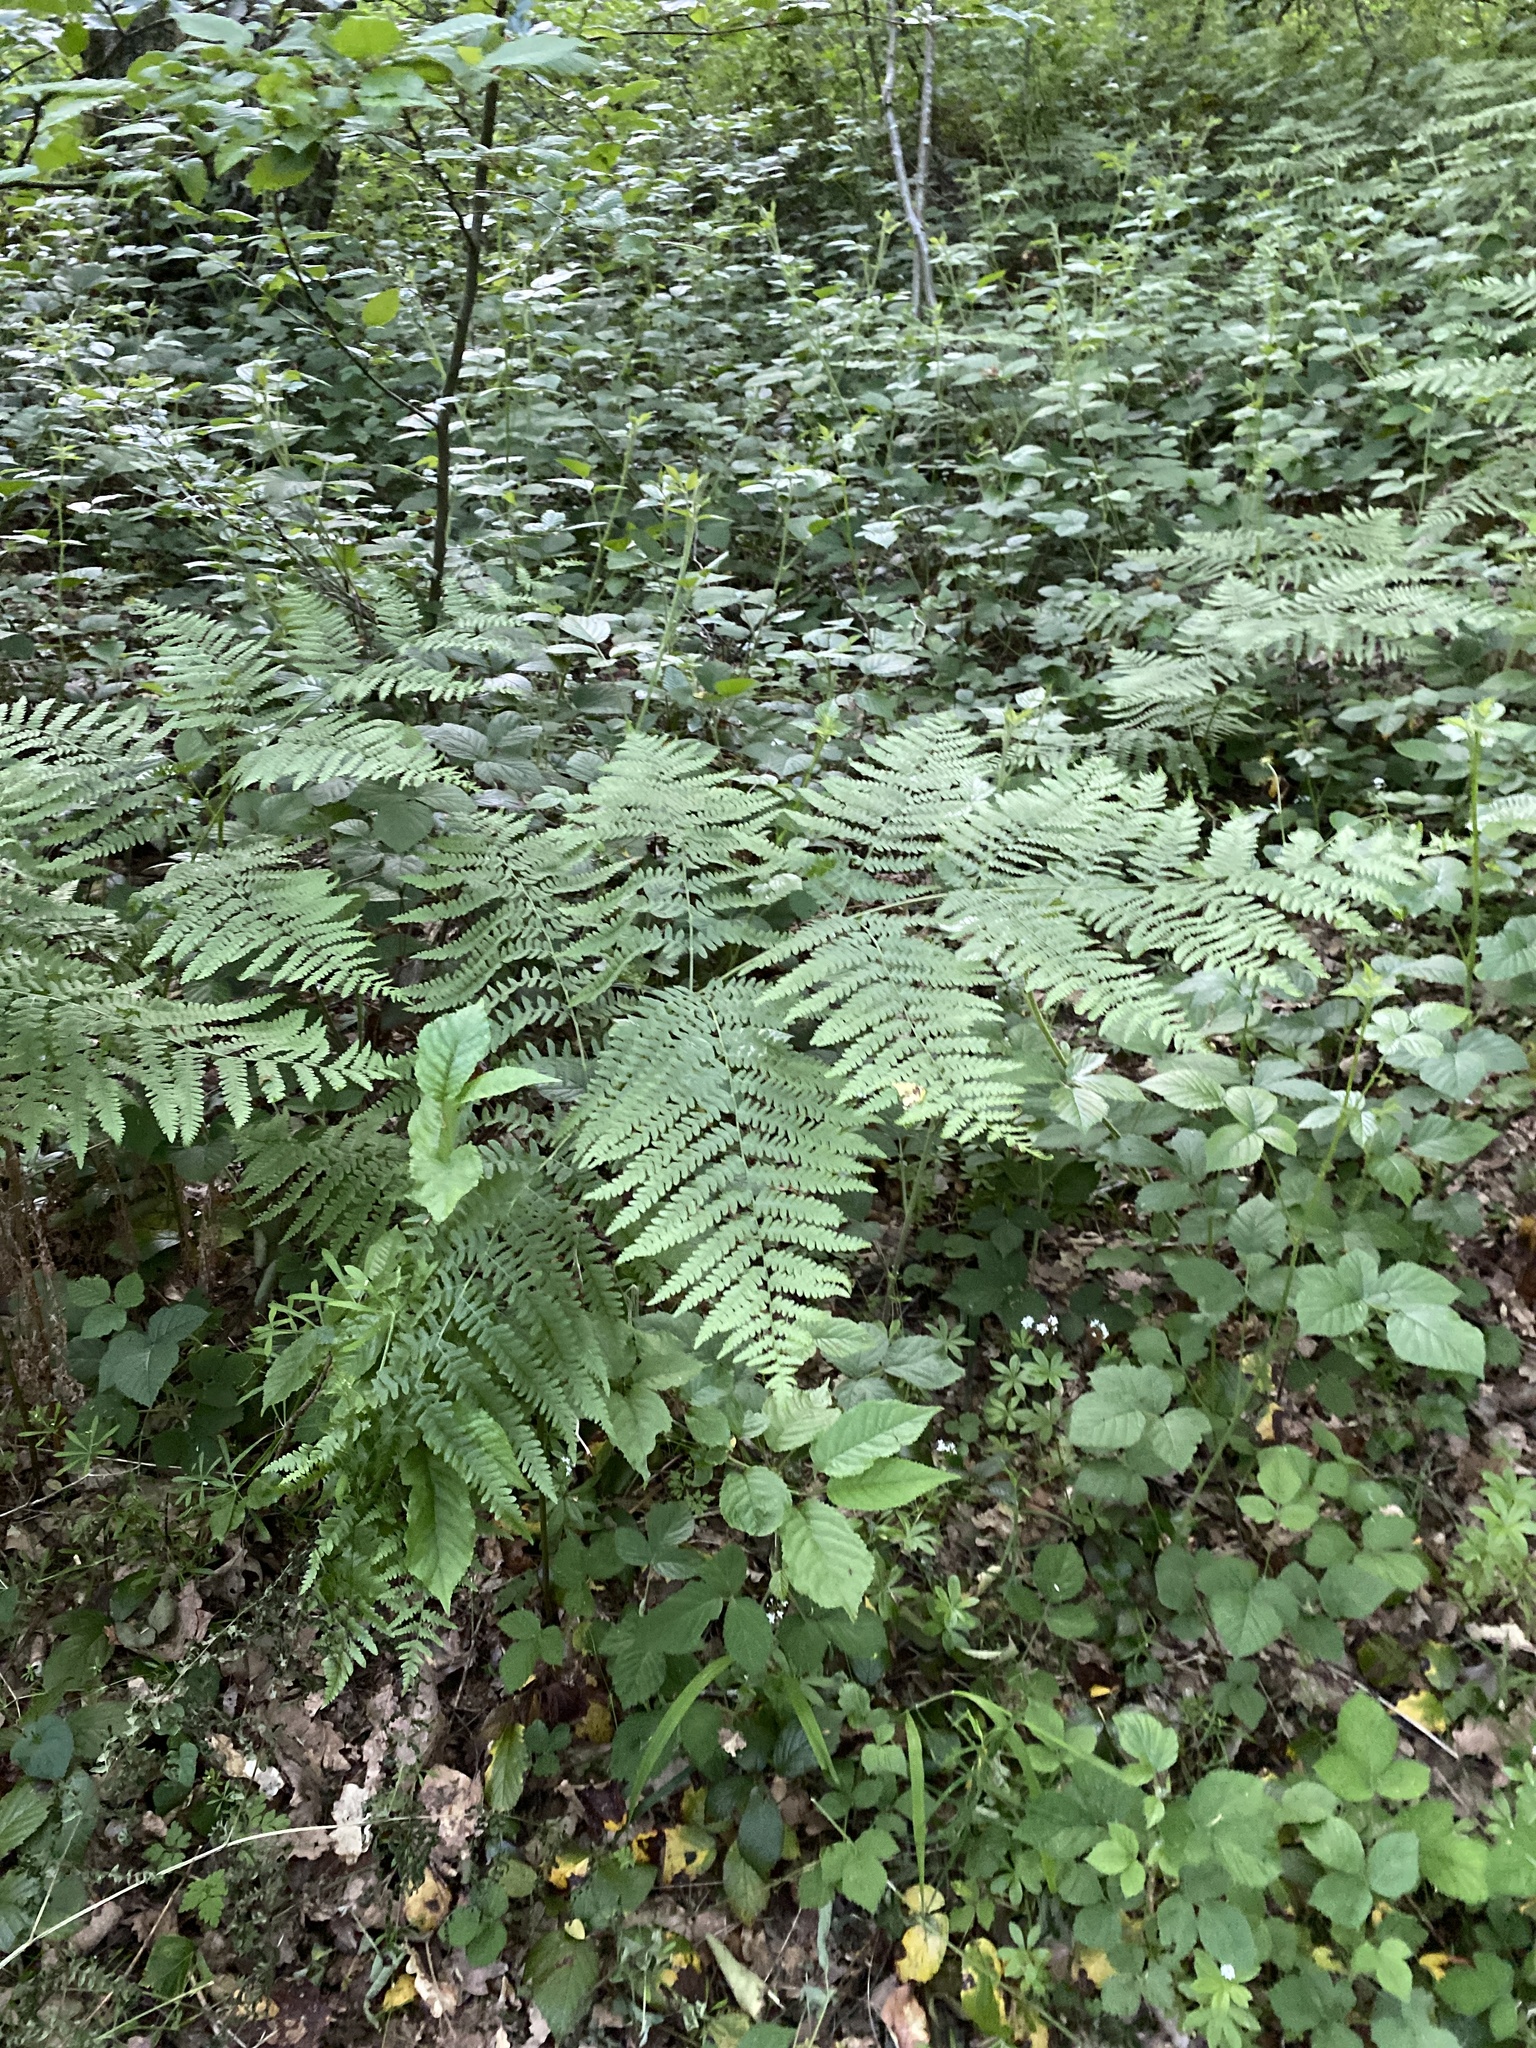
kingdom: Plantae
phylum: Tracheophyta
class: Polypodiopsida
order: Polypodiales
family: Dennstaedtiaceae
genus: Pteridium
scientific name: Pteridium aquilinum
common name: Bracken
